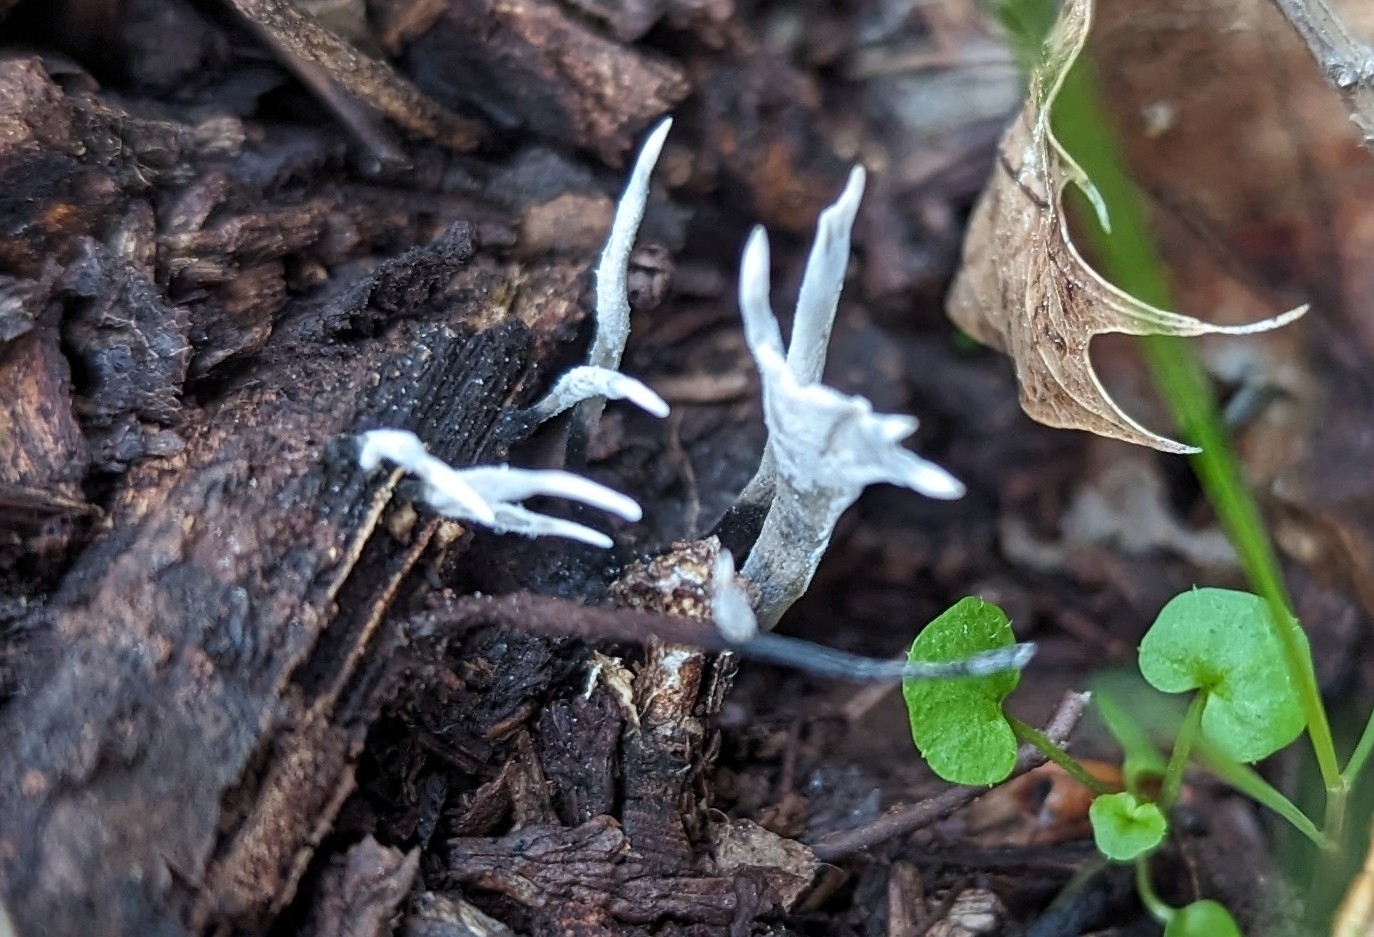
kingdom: Fungi
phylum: Ascomycota
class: Sordariomycetes
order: Xylariales
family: Xylariaceae
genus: Xylaria
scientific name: Xylaria hypoxylon
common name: Candle-snuff fungus
